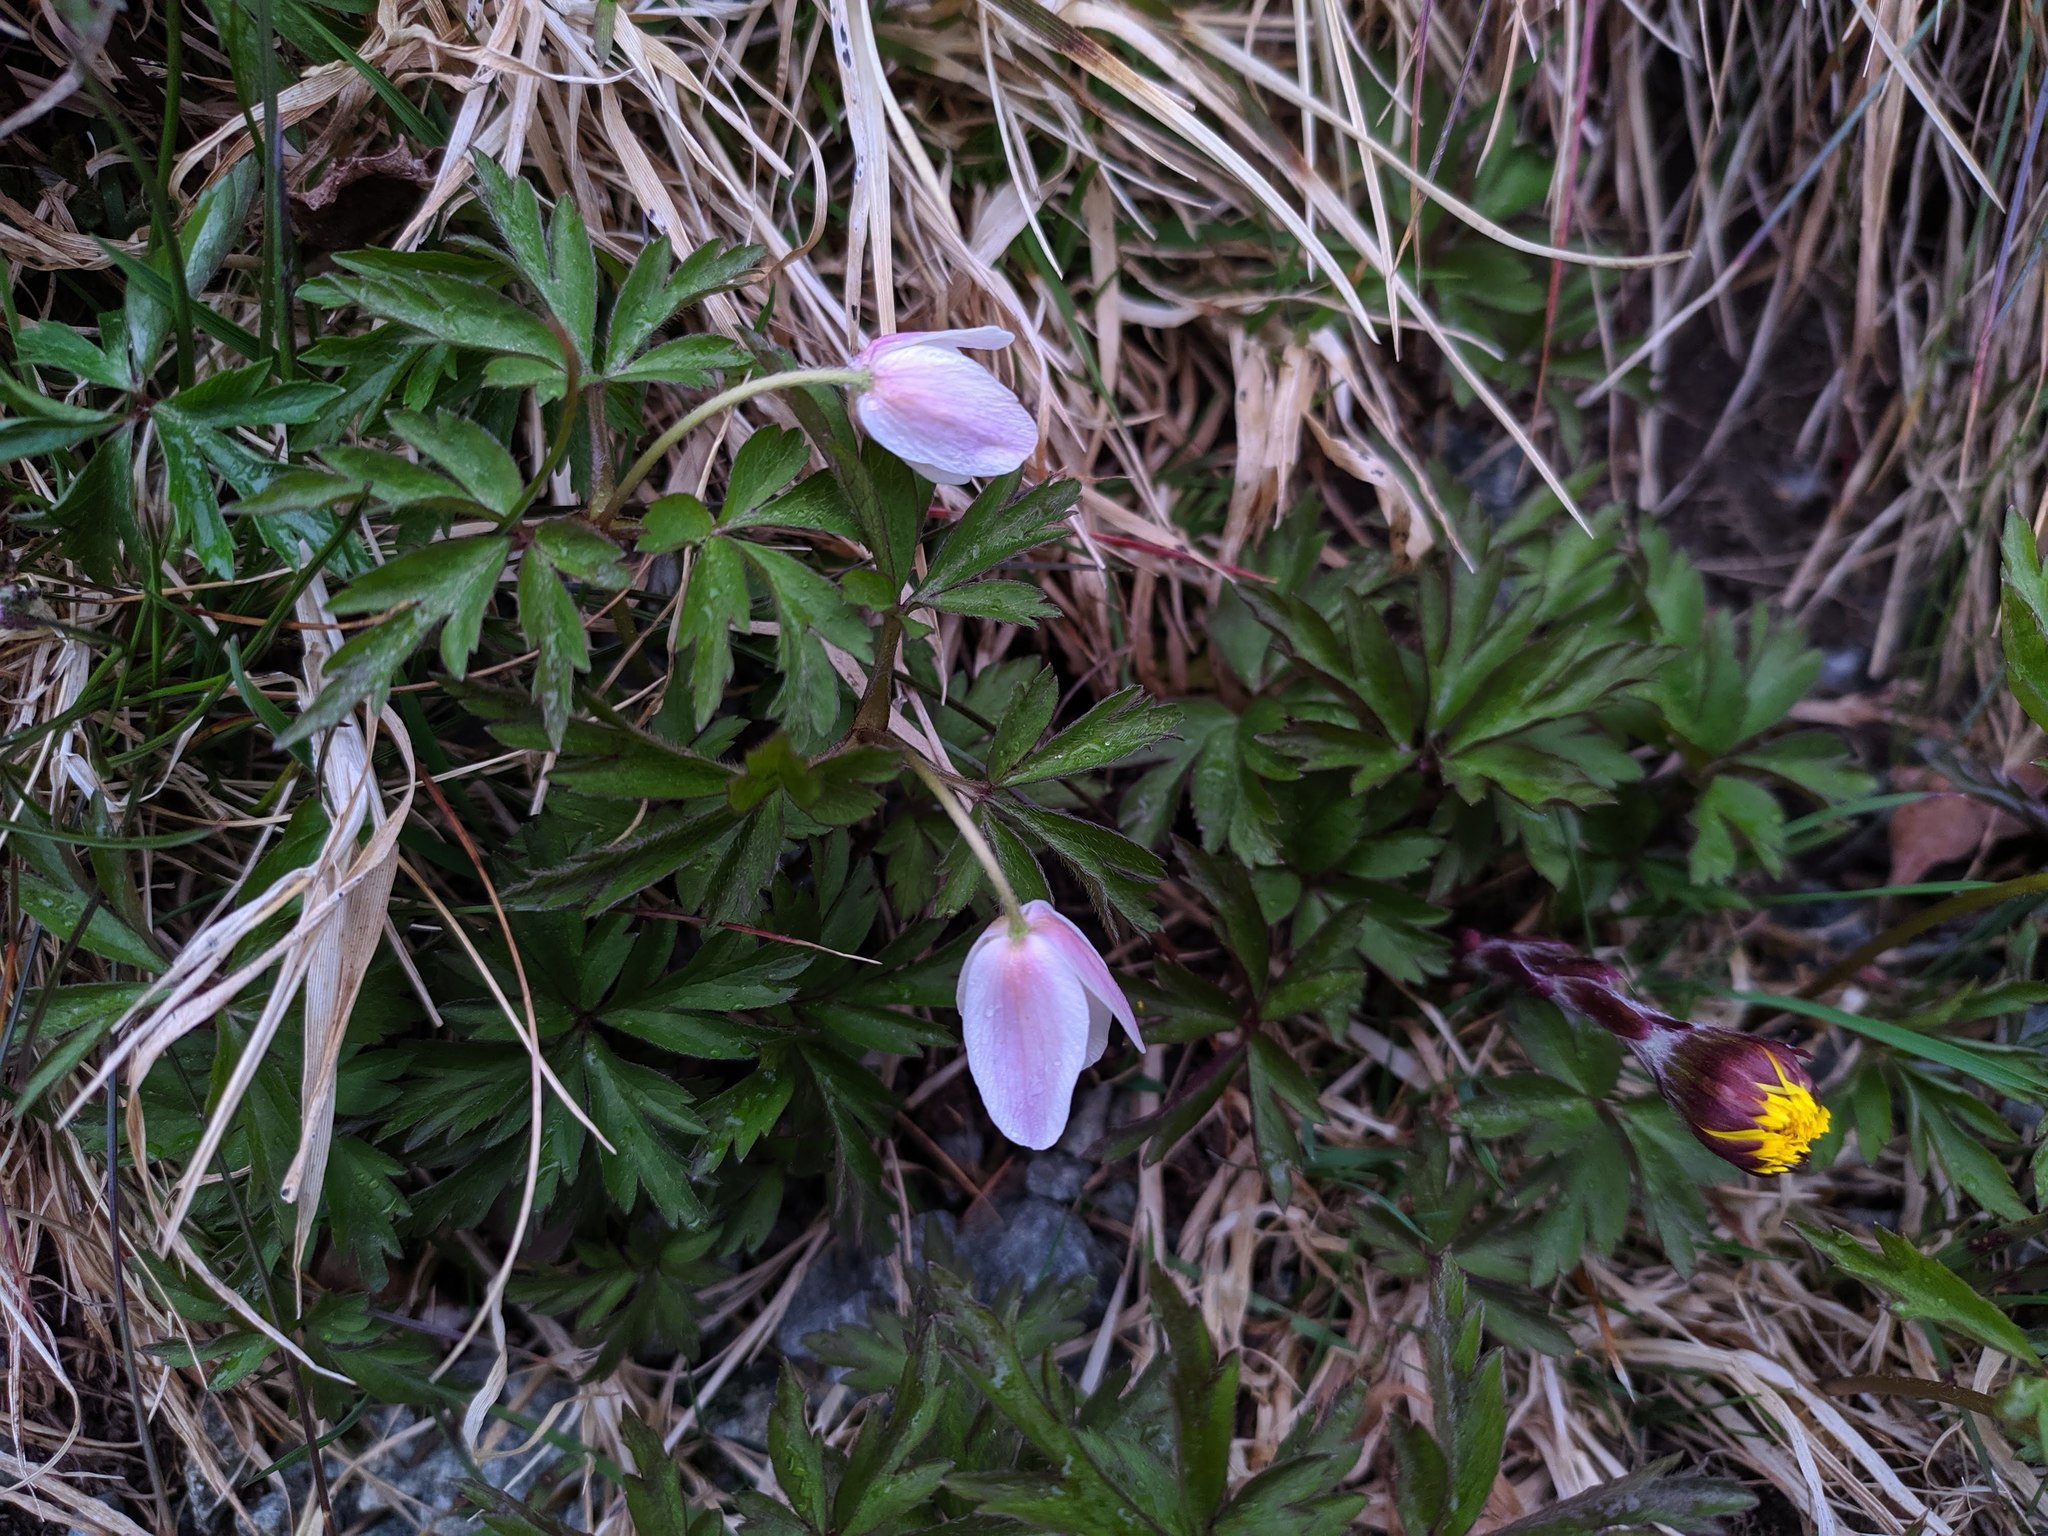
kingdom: Plantae
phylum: Tracheophyta
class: Magnoliopsida
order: Ranunculales
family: Ranunculaceae
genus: Anemone
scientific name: Anemone nemorosa
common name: Wood anemone
